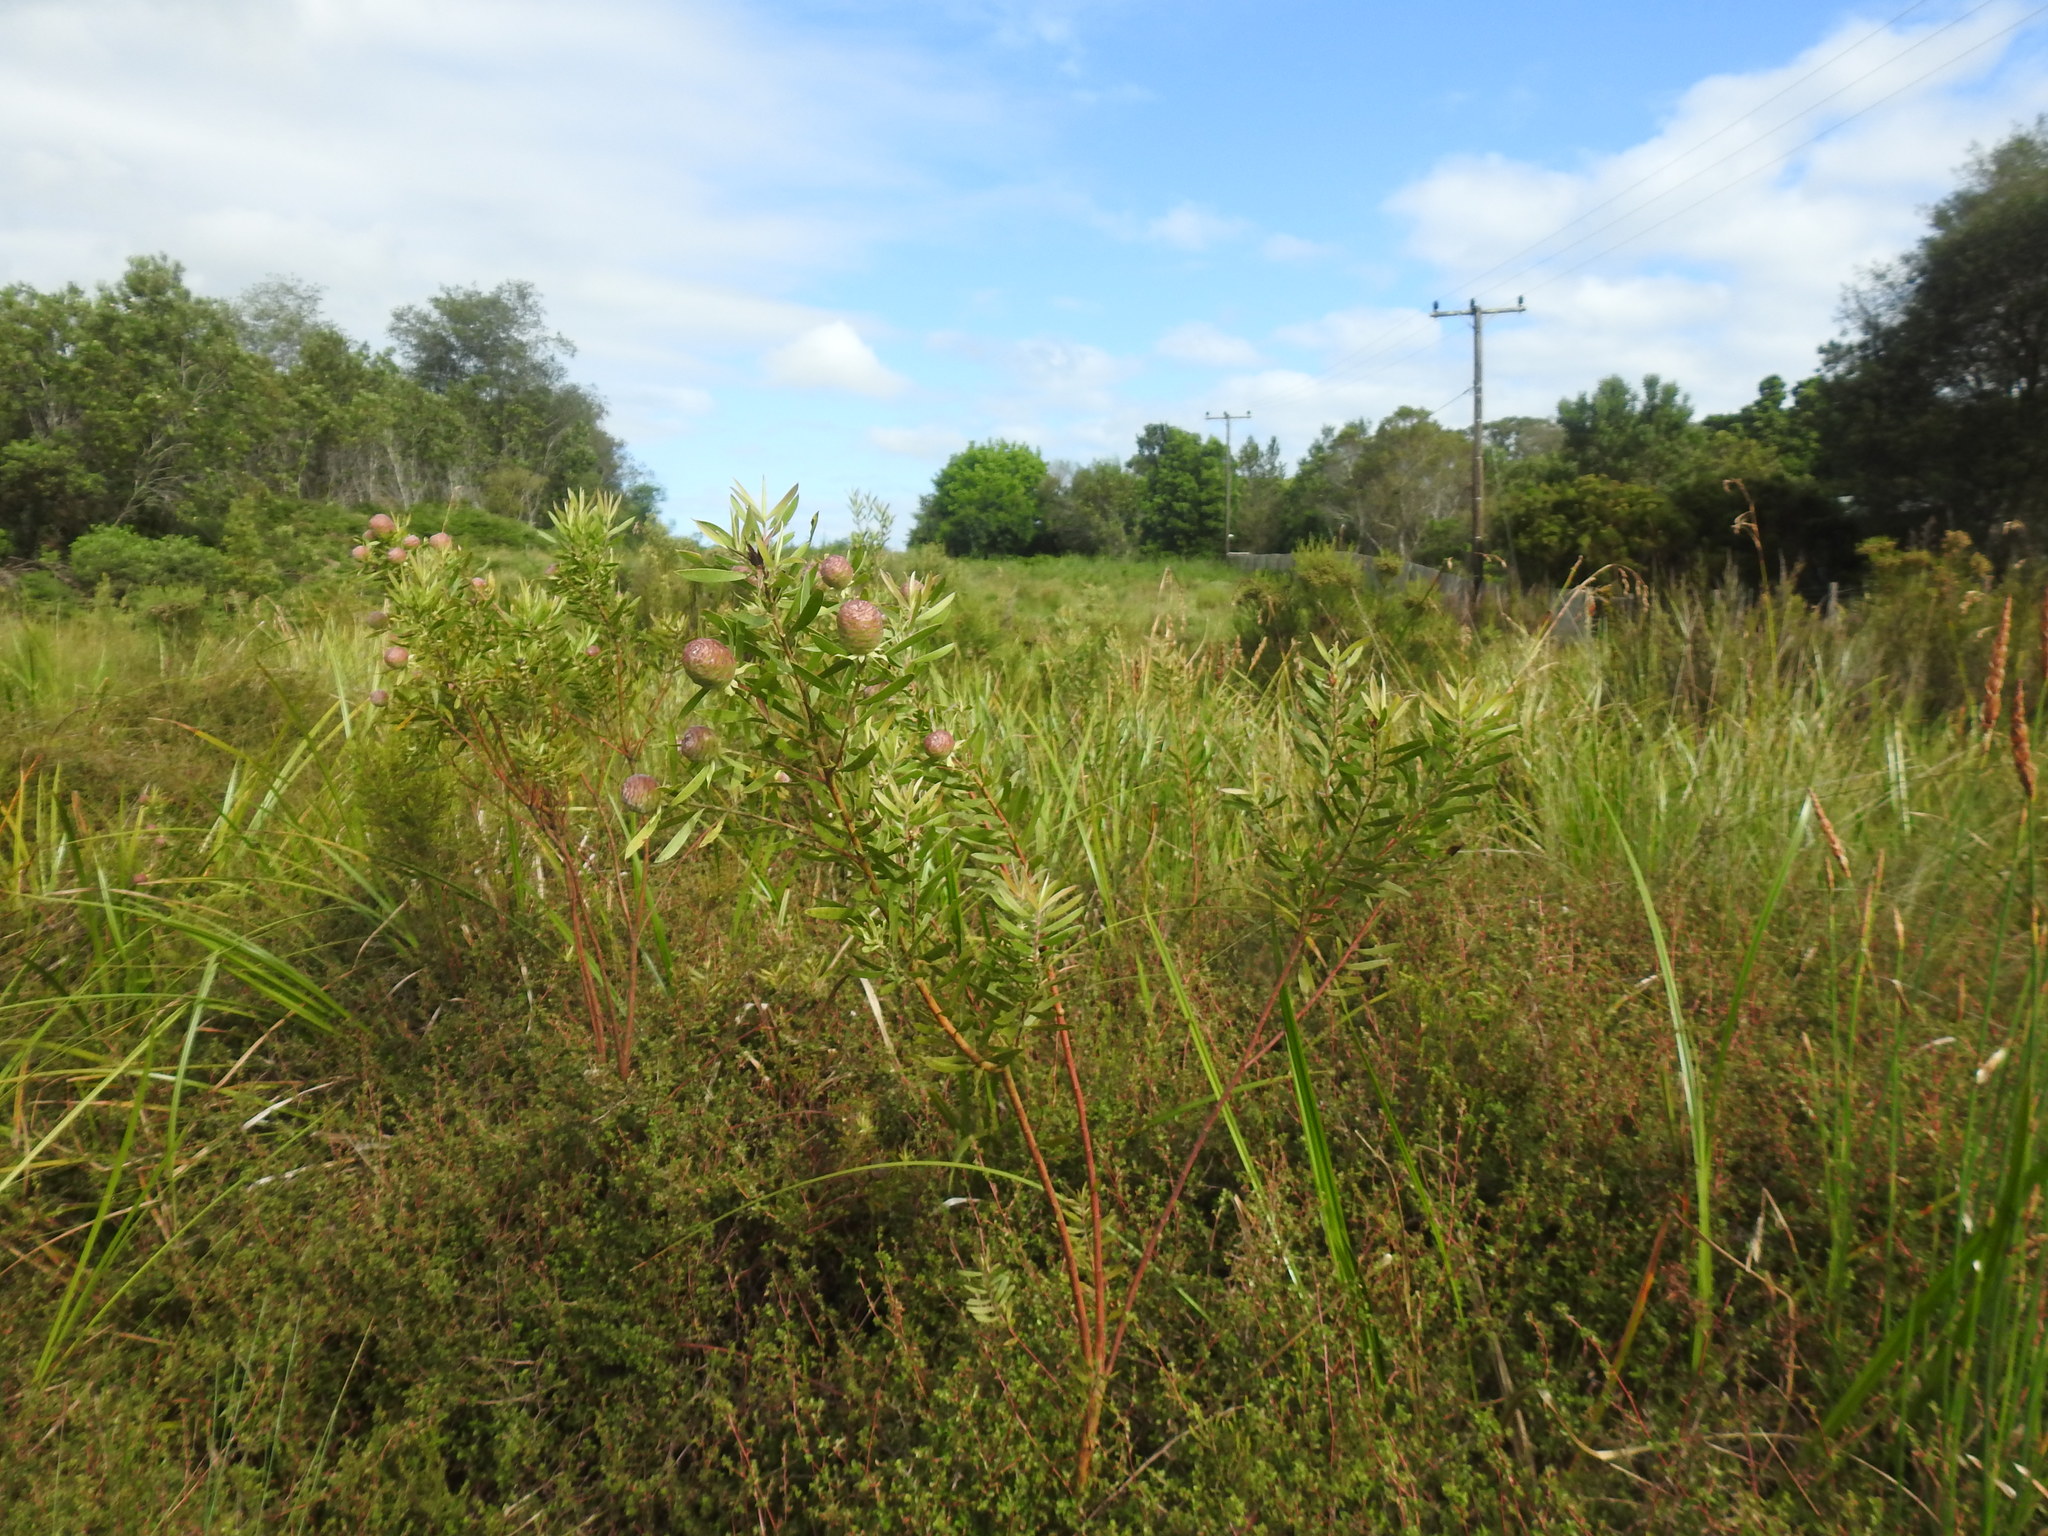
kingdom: Plantae
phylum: Tracheophyta
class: Magnoliopsida
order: Proteales
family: Proteaceae
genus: Leucadendron
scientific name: Leucadendron conicum
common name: Garden route conebush
